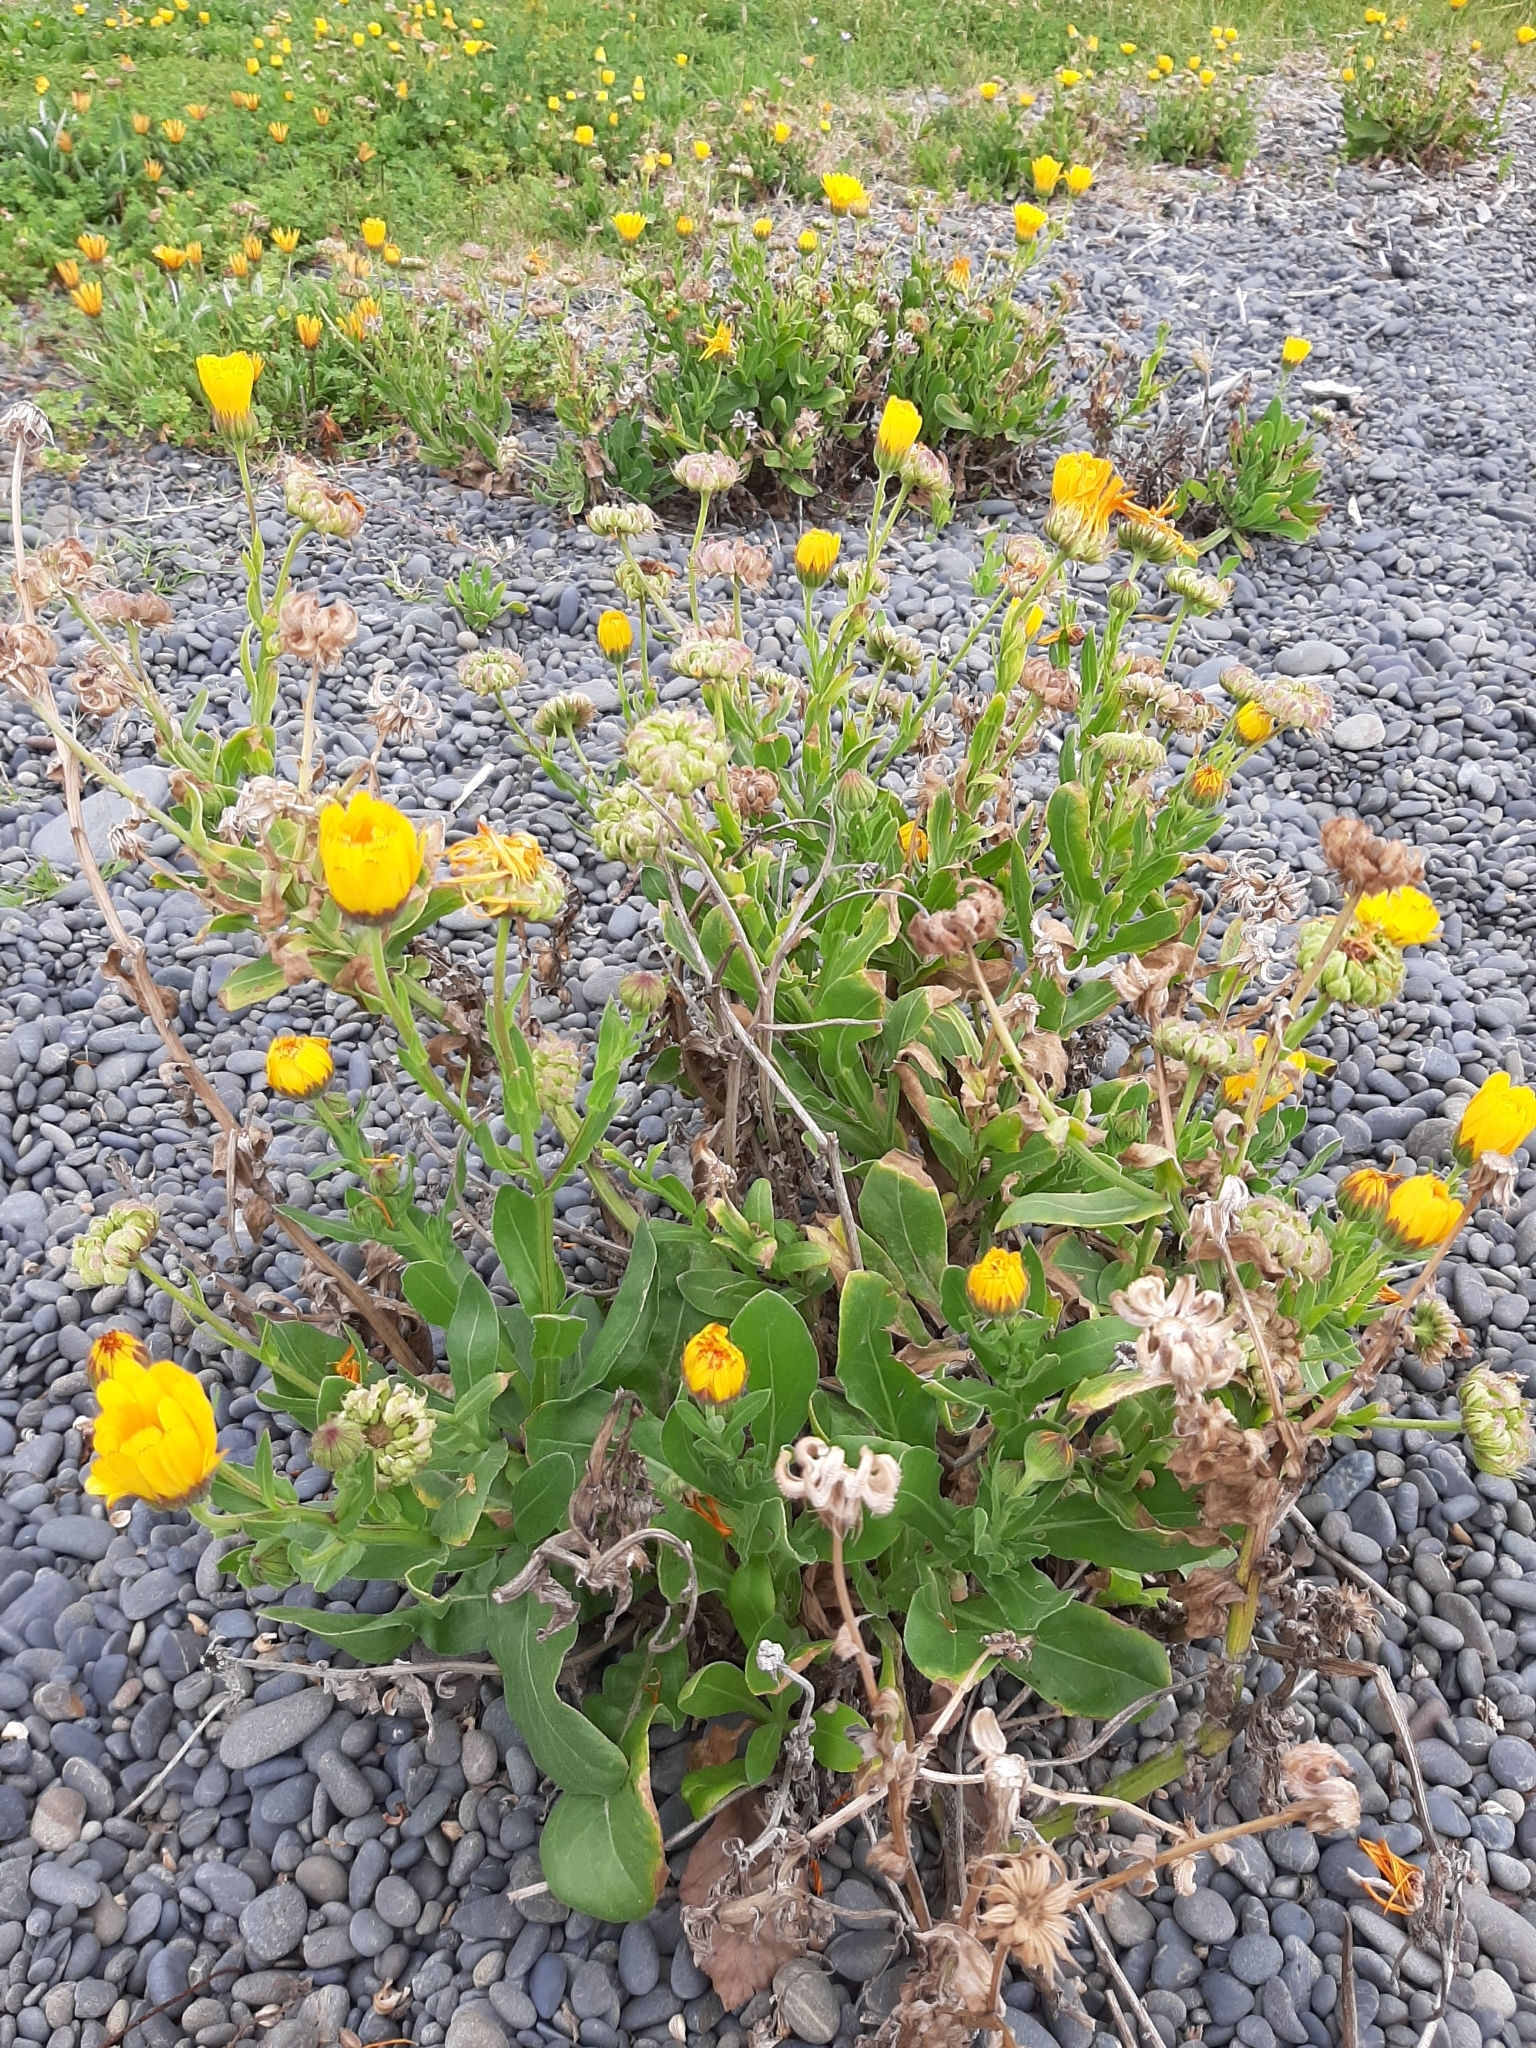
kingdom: Plantae
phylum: Tracheophyta
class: Magnoliopsida
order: Asterales
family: Asteraceae
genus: Calendula
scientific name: Calendula officinalis
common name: Pot marigold
